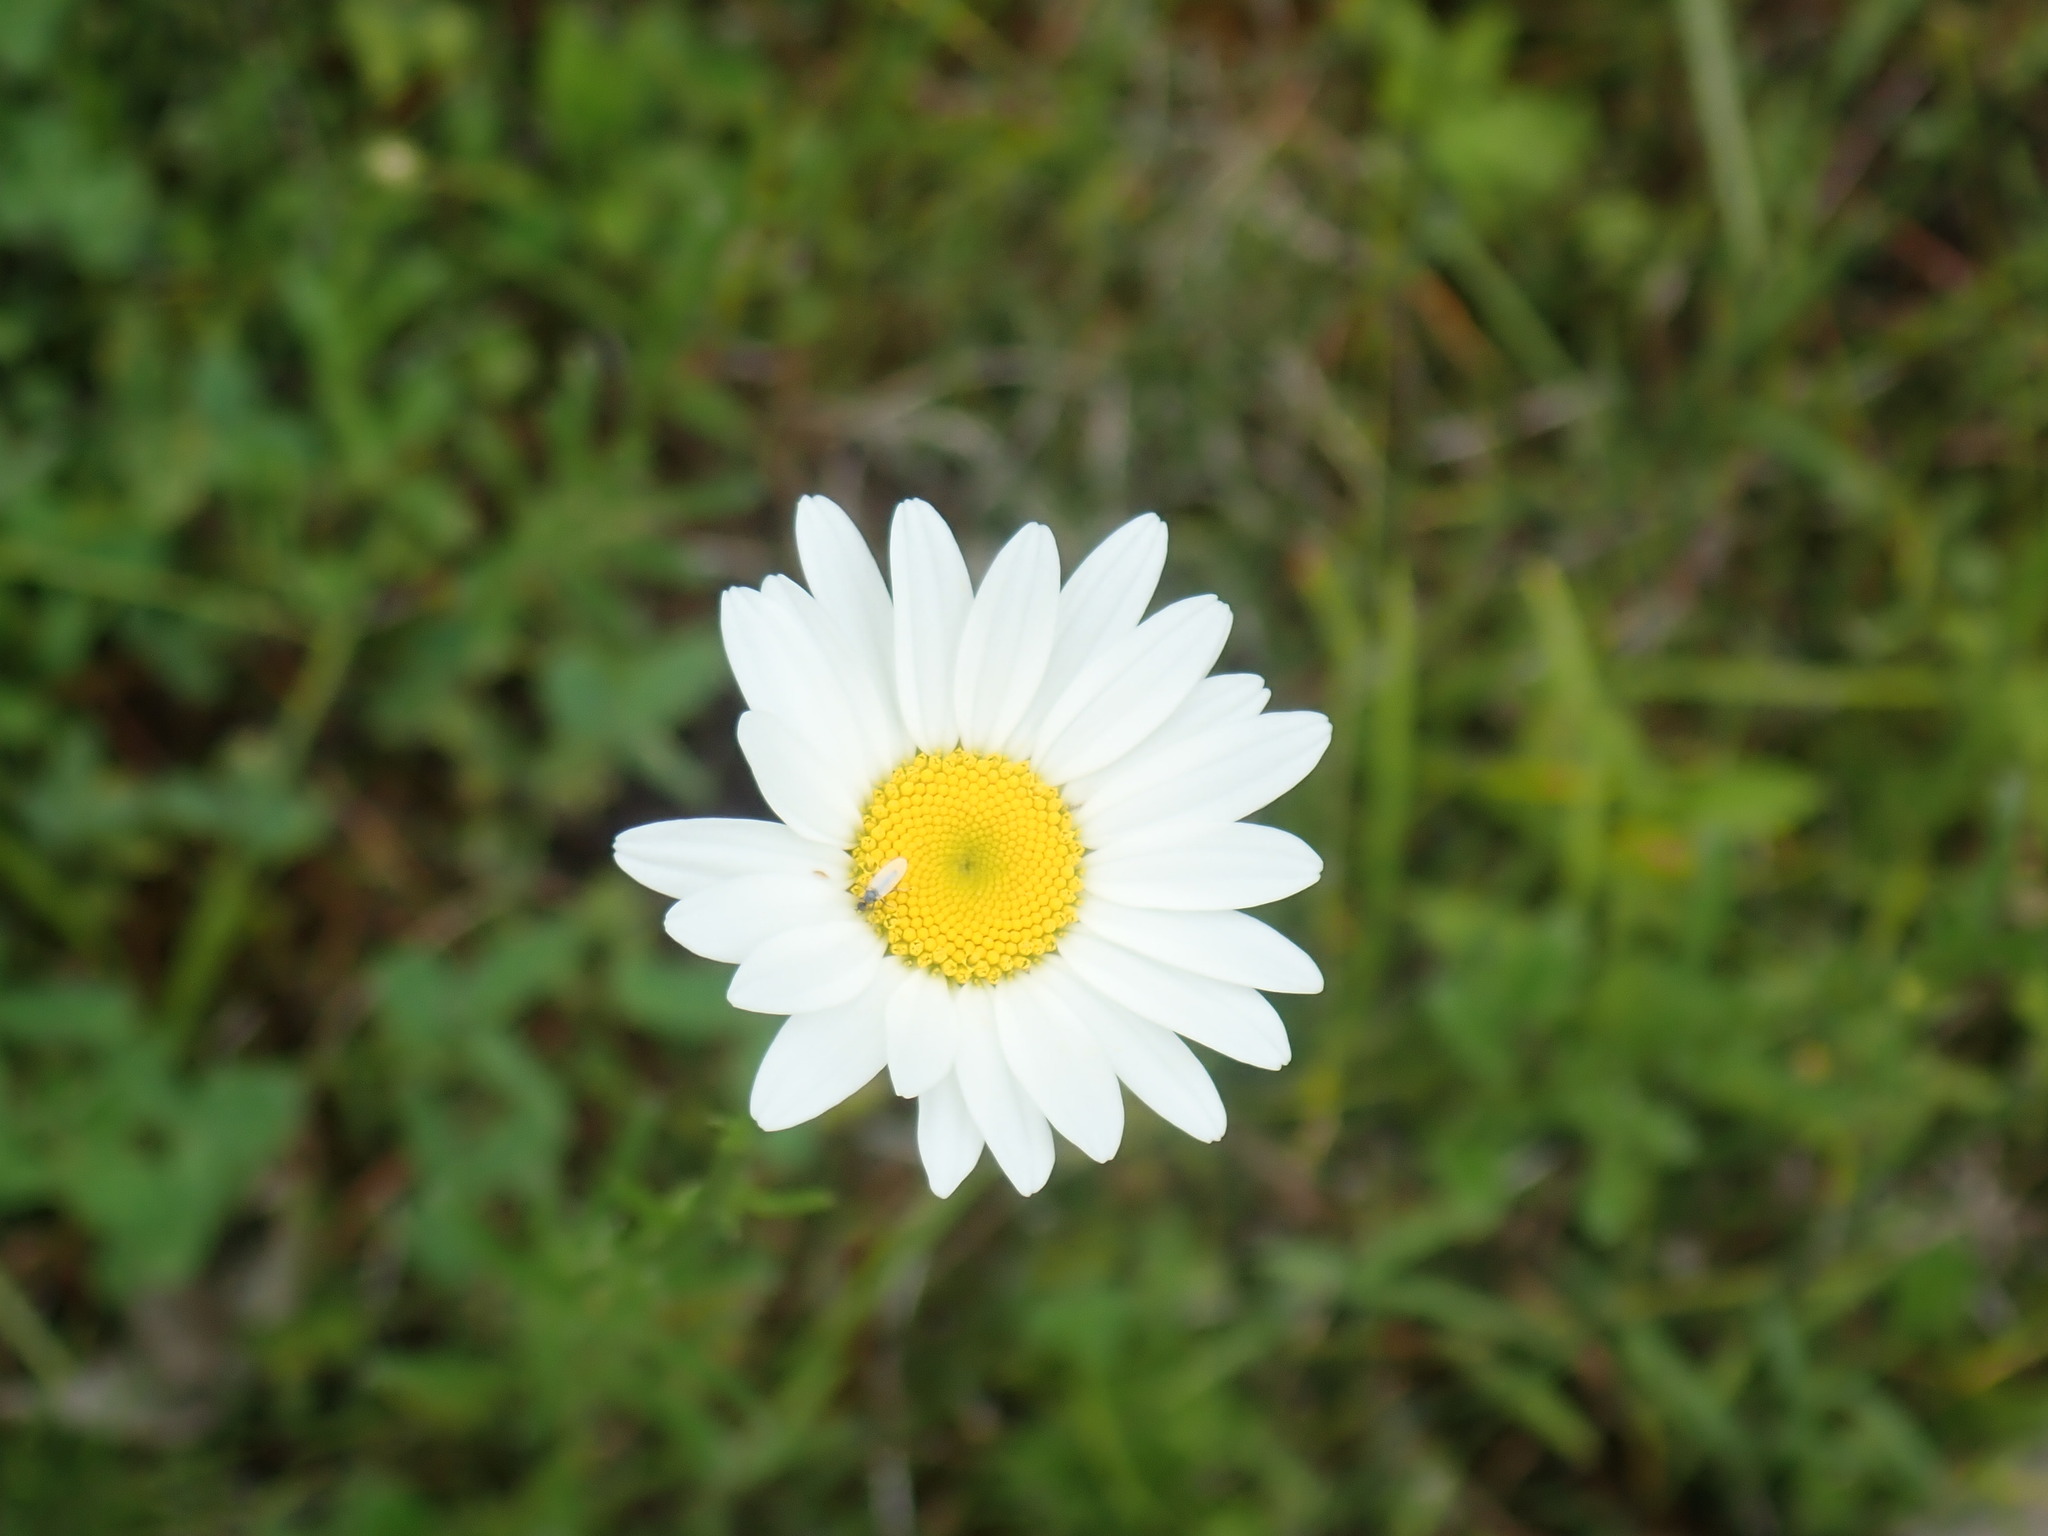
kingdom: Plantae
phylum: Tracheophyta
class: Magnoliopsida
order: Asterales
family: Asteraceae
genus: Leucanthemum
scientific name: Leucanthemum vulgare
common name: Oxeye daisy
